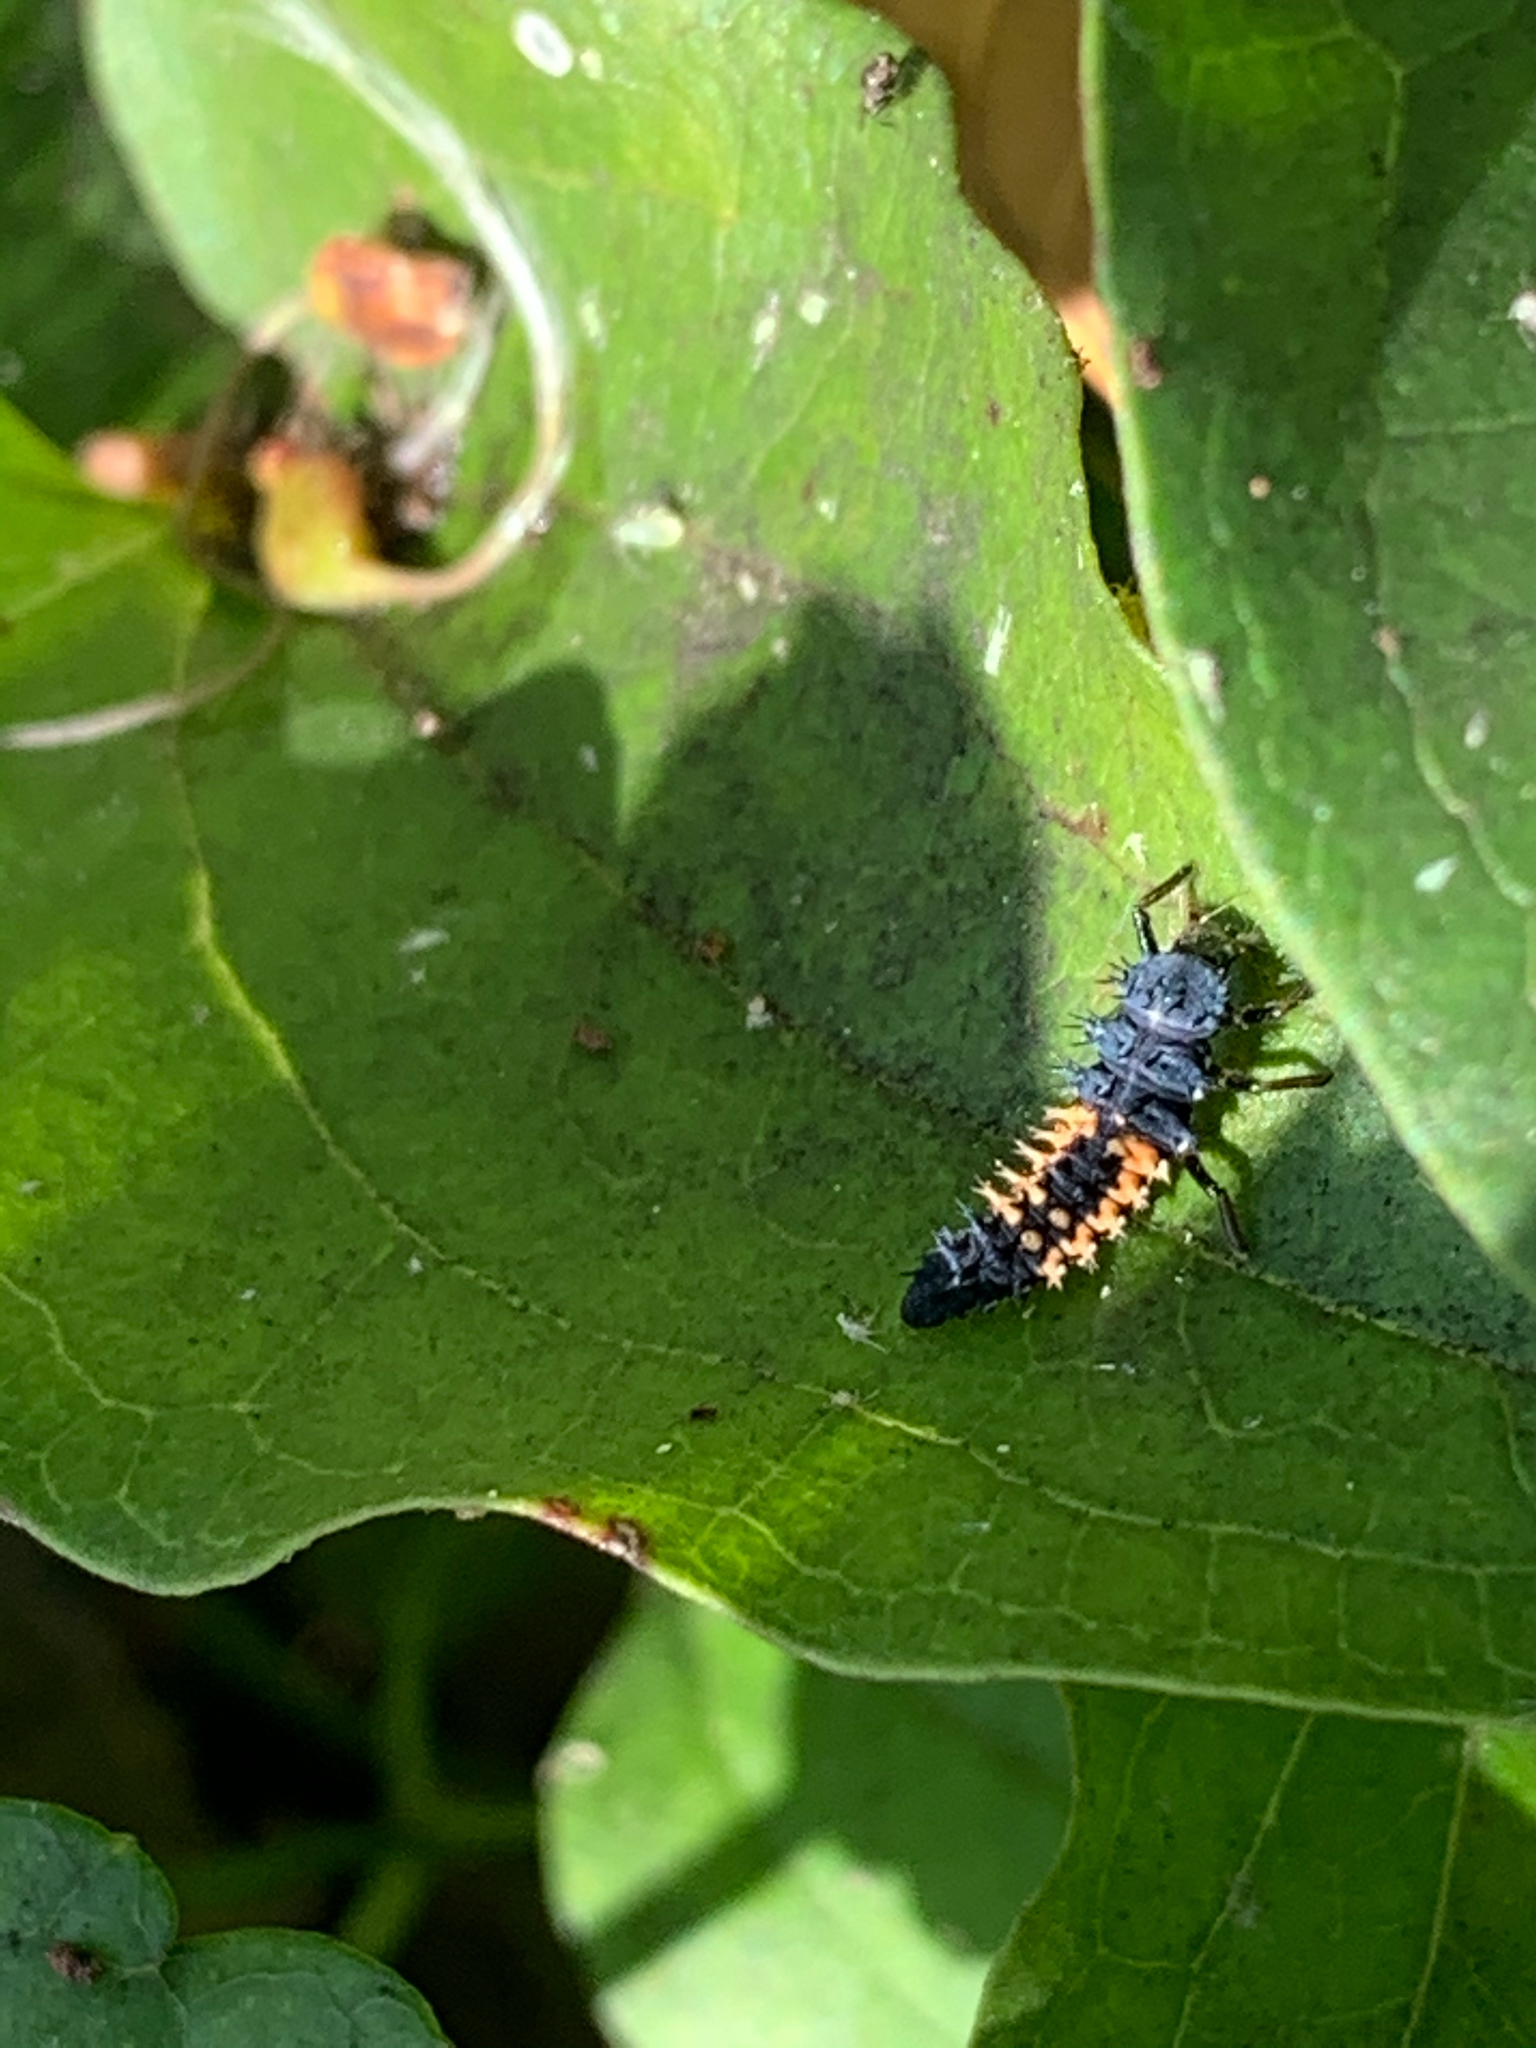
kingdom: Animalia
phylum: Arthropoda
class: Insecta
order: Coleoptera
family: Coccinellidae
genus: Harmonia
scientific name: Harmonia axyridis
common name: Harlequin ladybird
